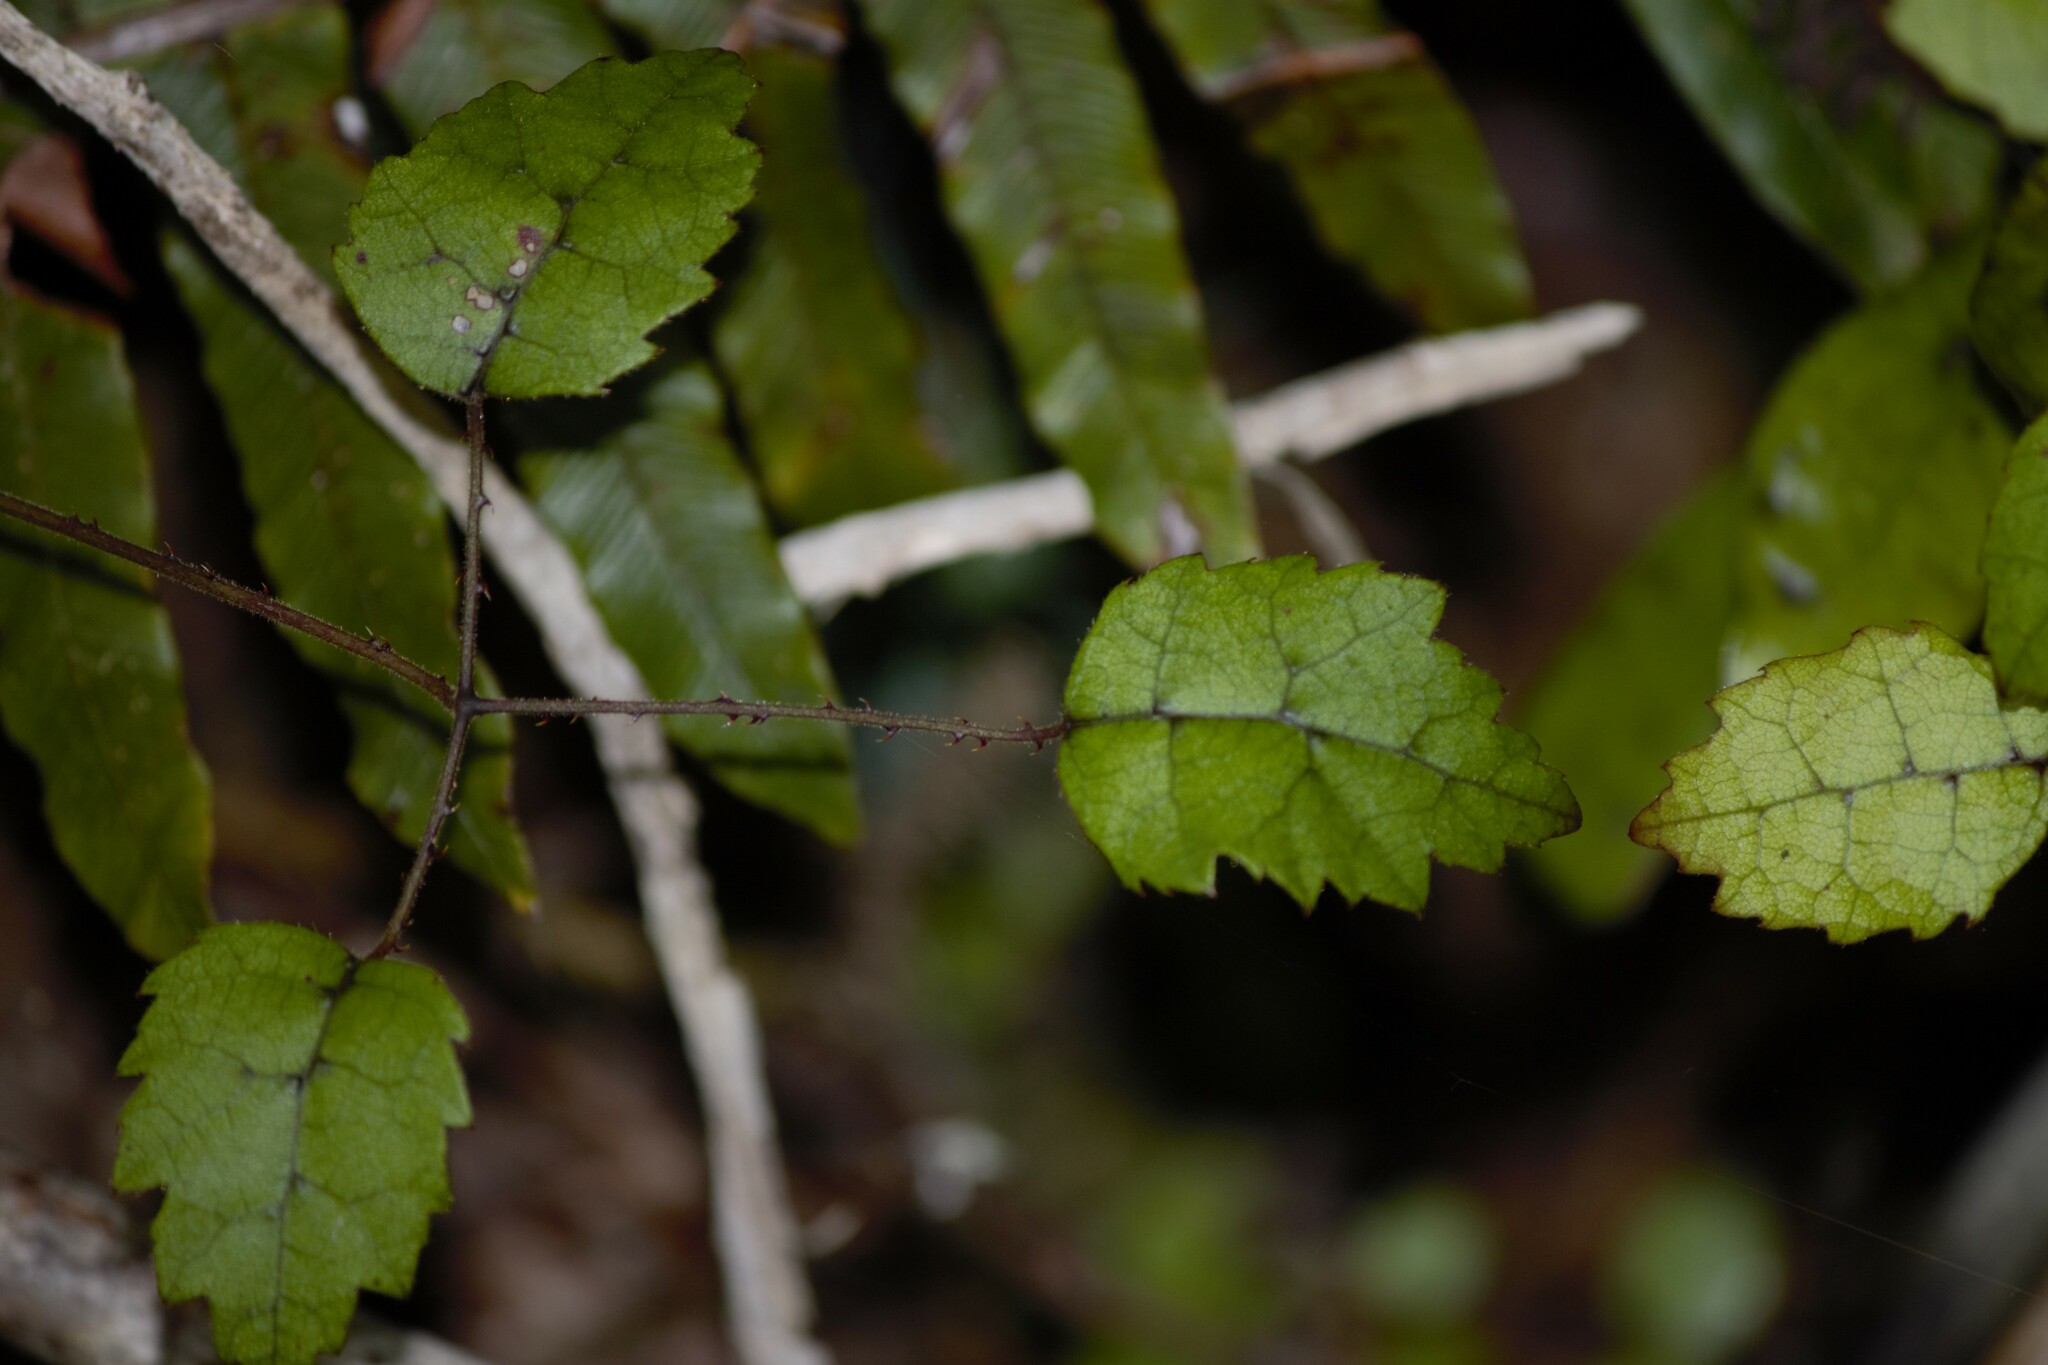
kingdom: Plantae
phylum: Tracheophyta
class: Magnoliopsida
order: Rosales
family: Rosaceae
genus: Rubus
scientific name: Rubus australis
